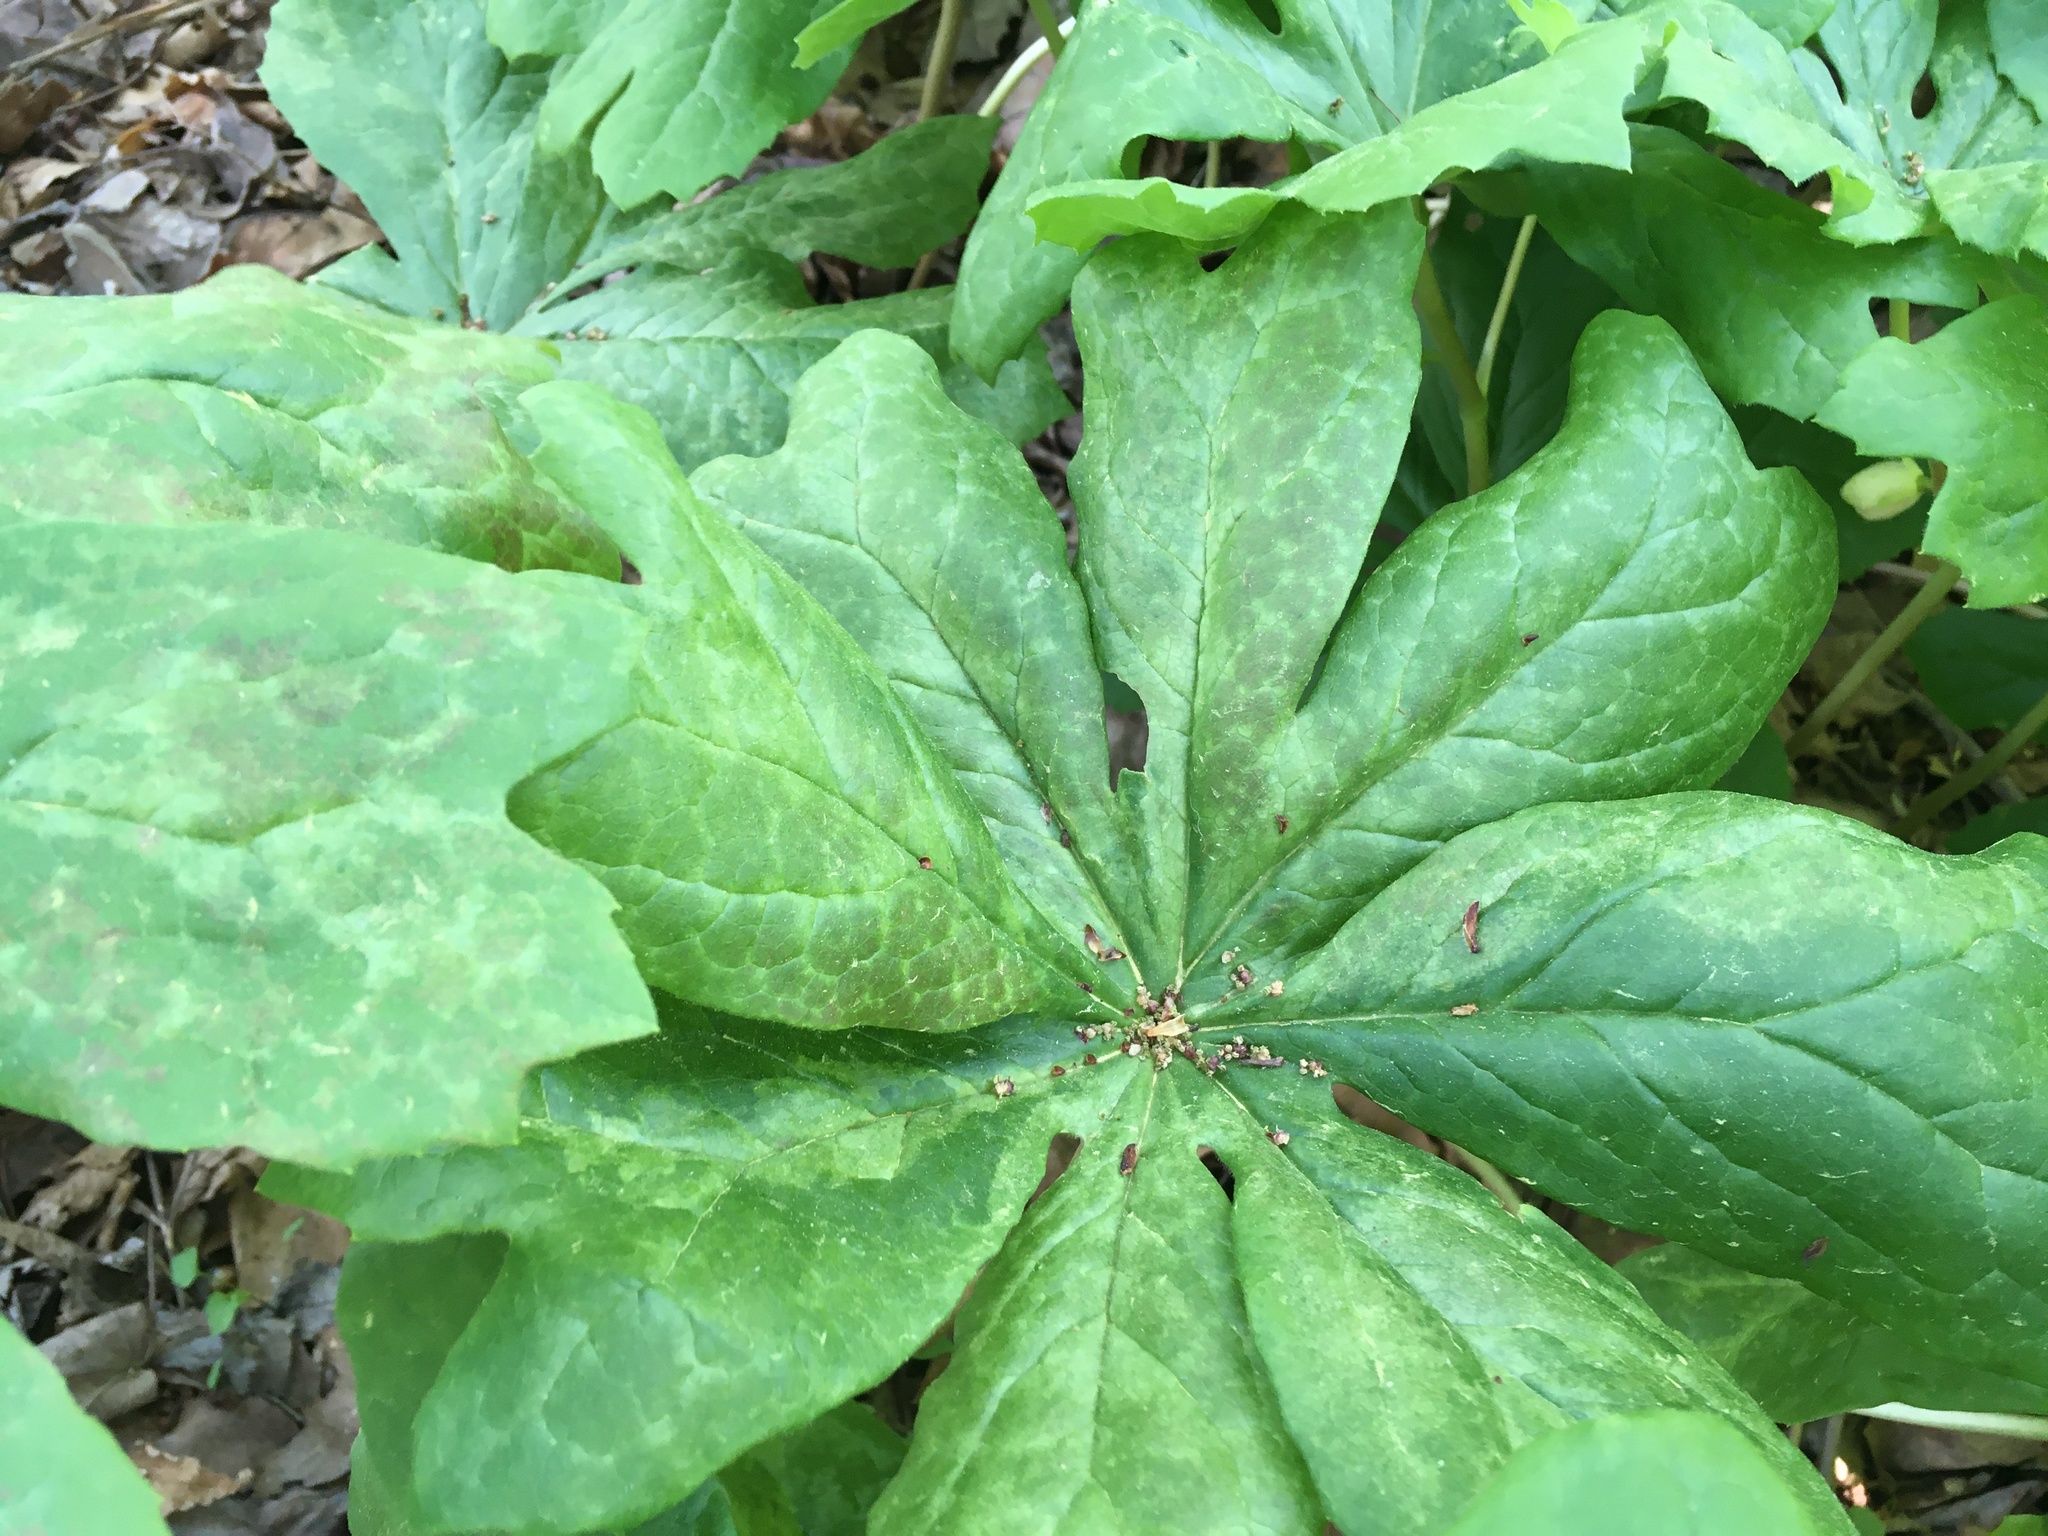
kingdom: Plantae
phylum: Tracheophyta
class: Magnoliopsida
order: Ranunculales
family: Berberidaceae
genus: Podophyllum
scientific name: Podophyllum peltatum
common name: Wild mandrake
